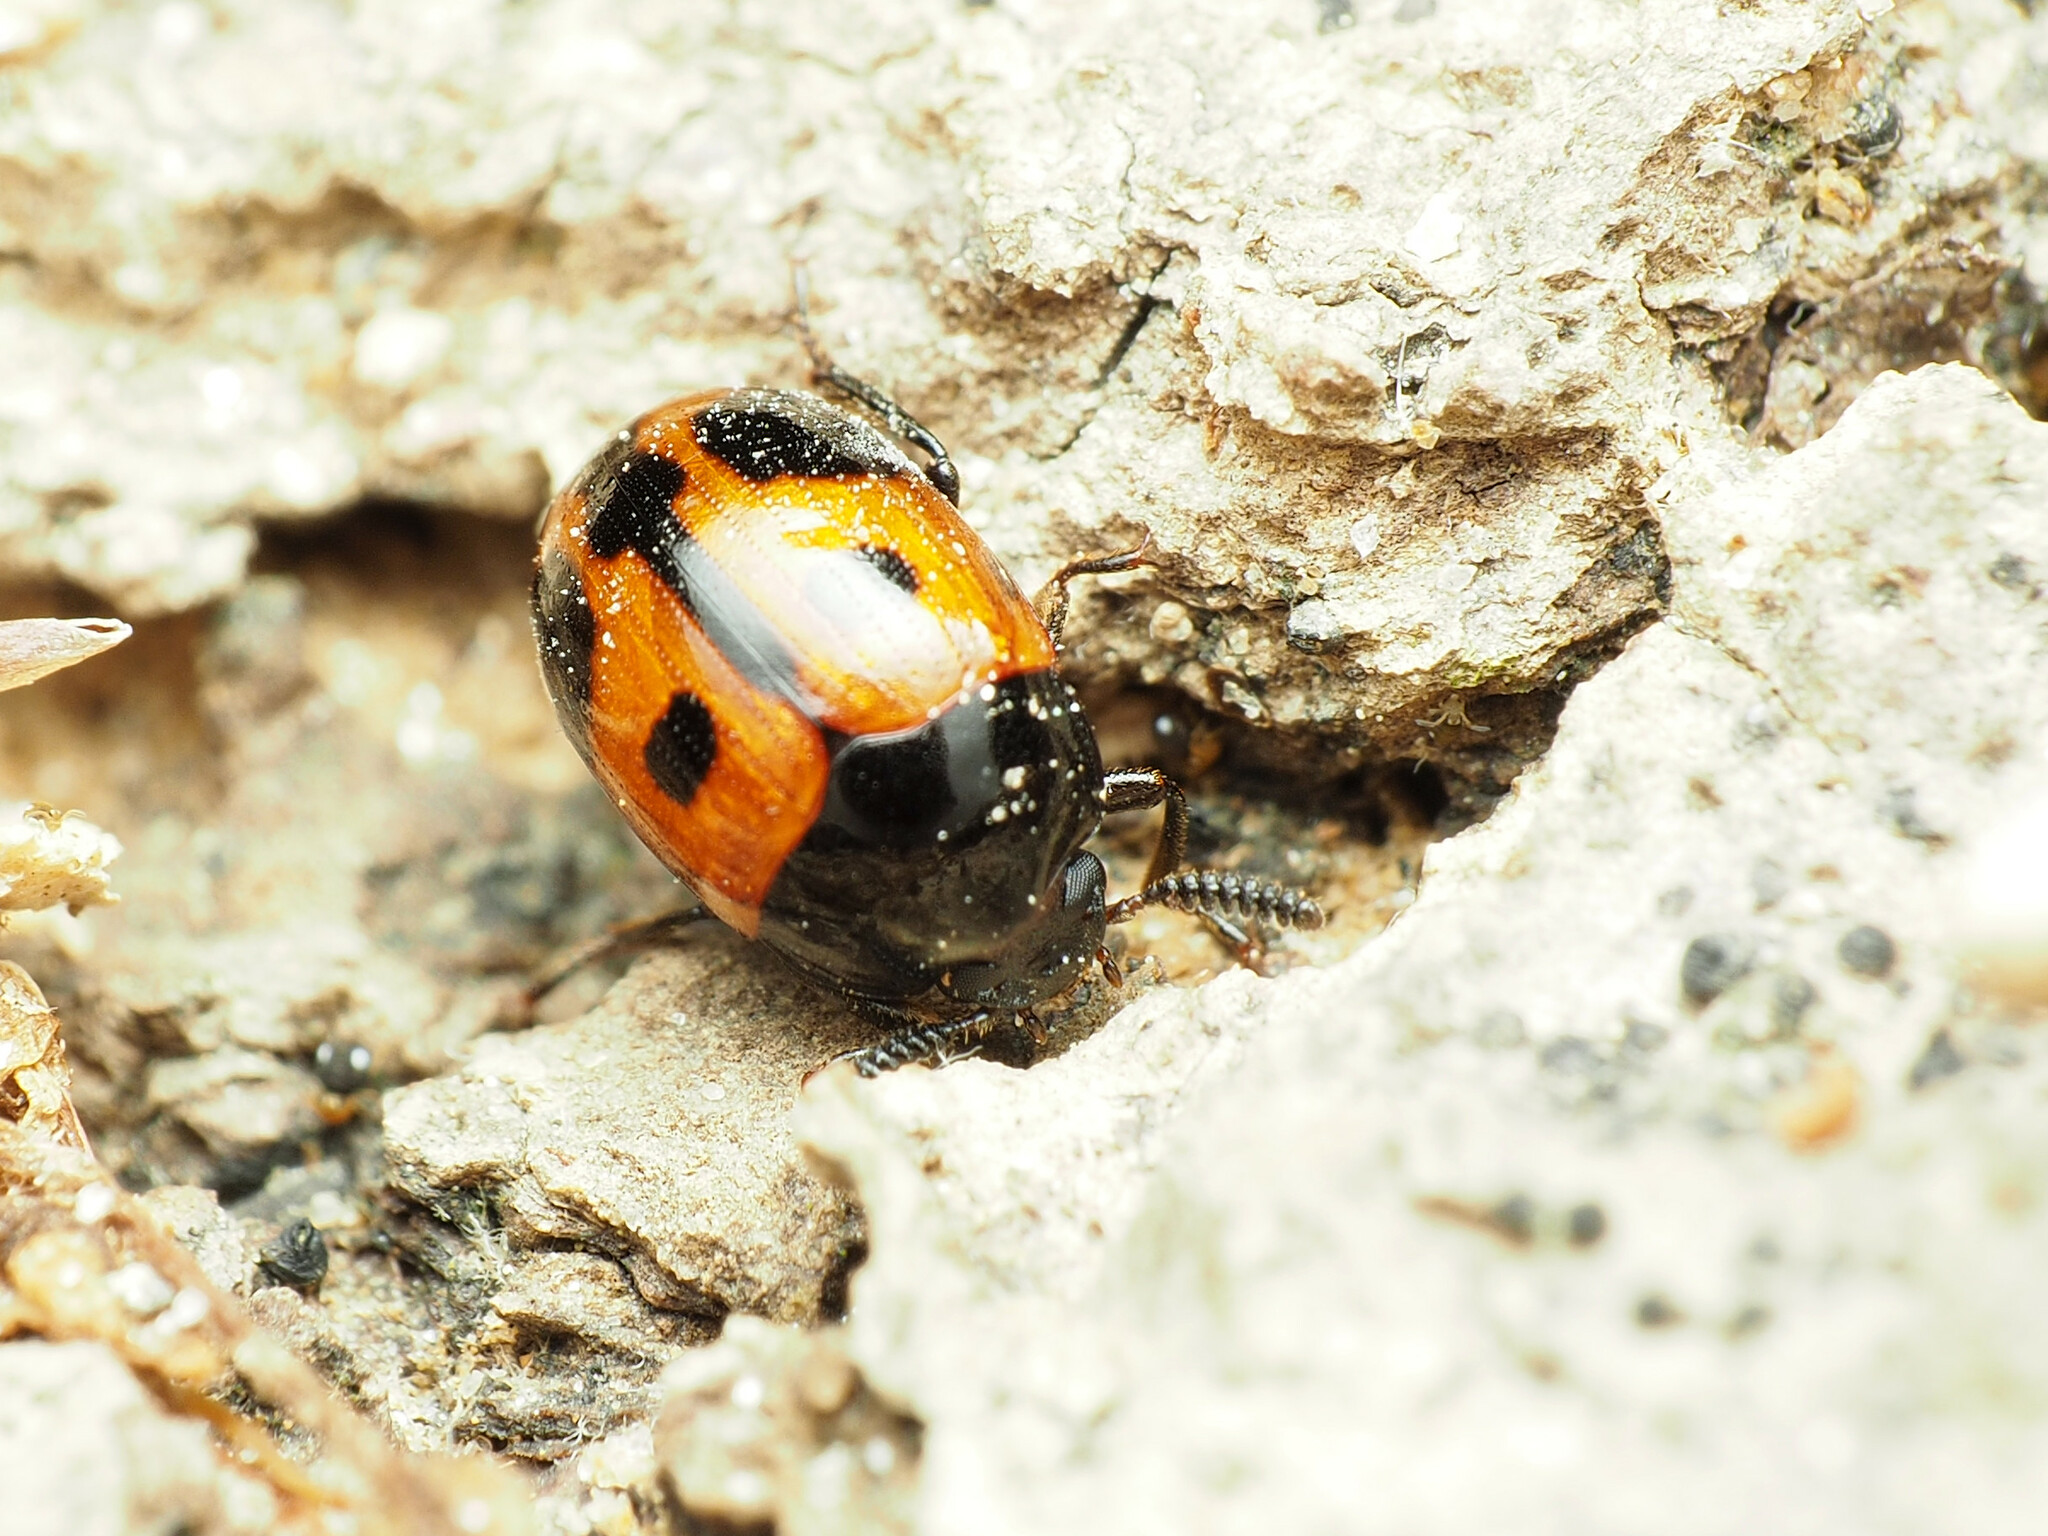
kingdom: Animalia
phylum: Arthropoda
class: Insecta
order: Coleoptera
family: Tenebrionidae
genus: Diaperis
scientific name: Diaperis maculata
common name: Darkling beetle
